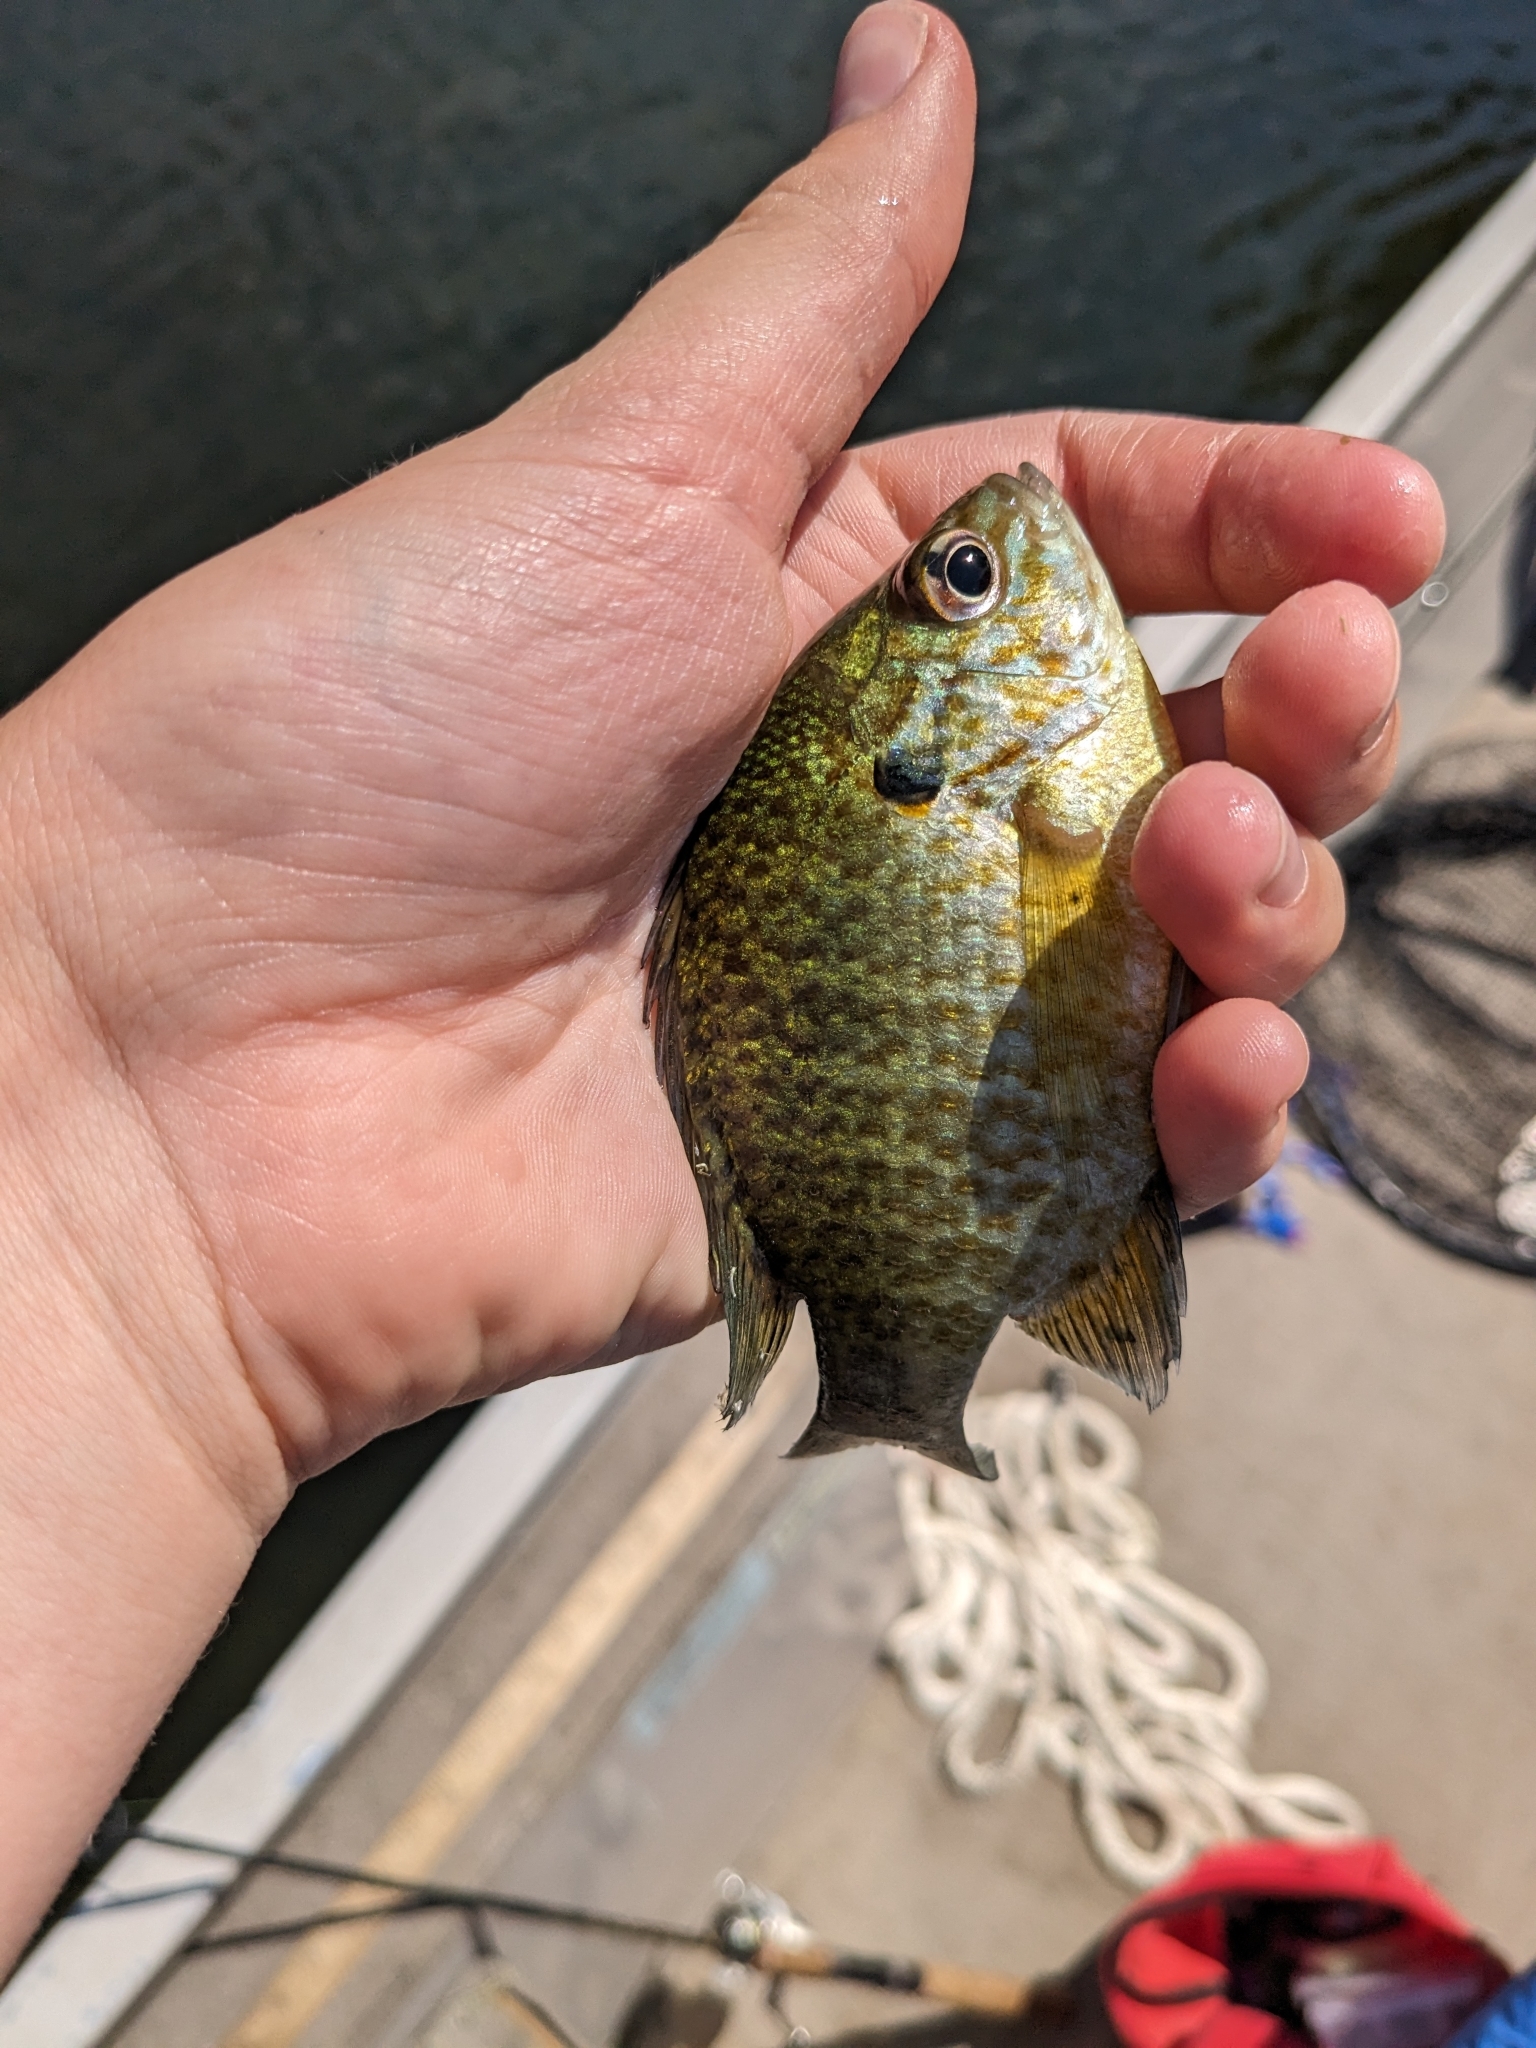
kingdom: Animalia
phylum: Chordata
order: Perciformes
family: Centrarchidae
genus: Lepomis
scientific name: Lepomis
